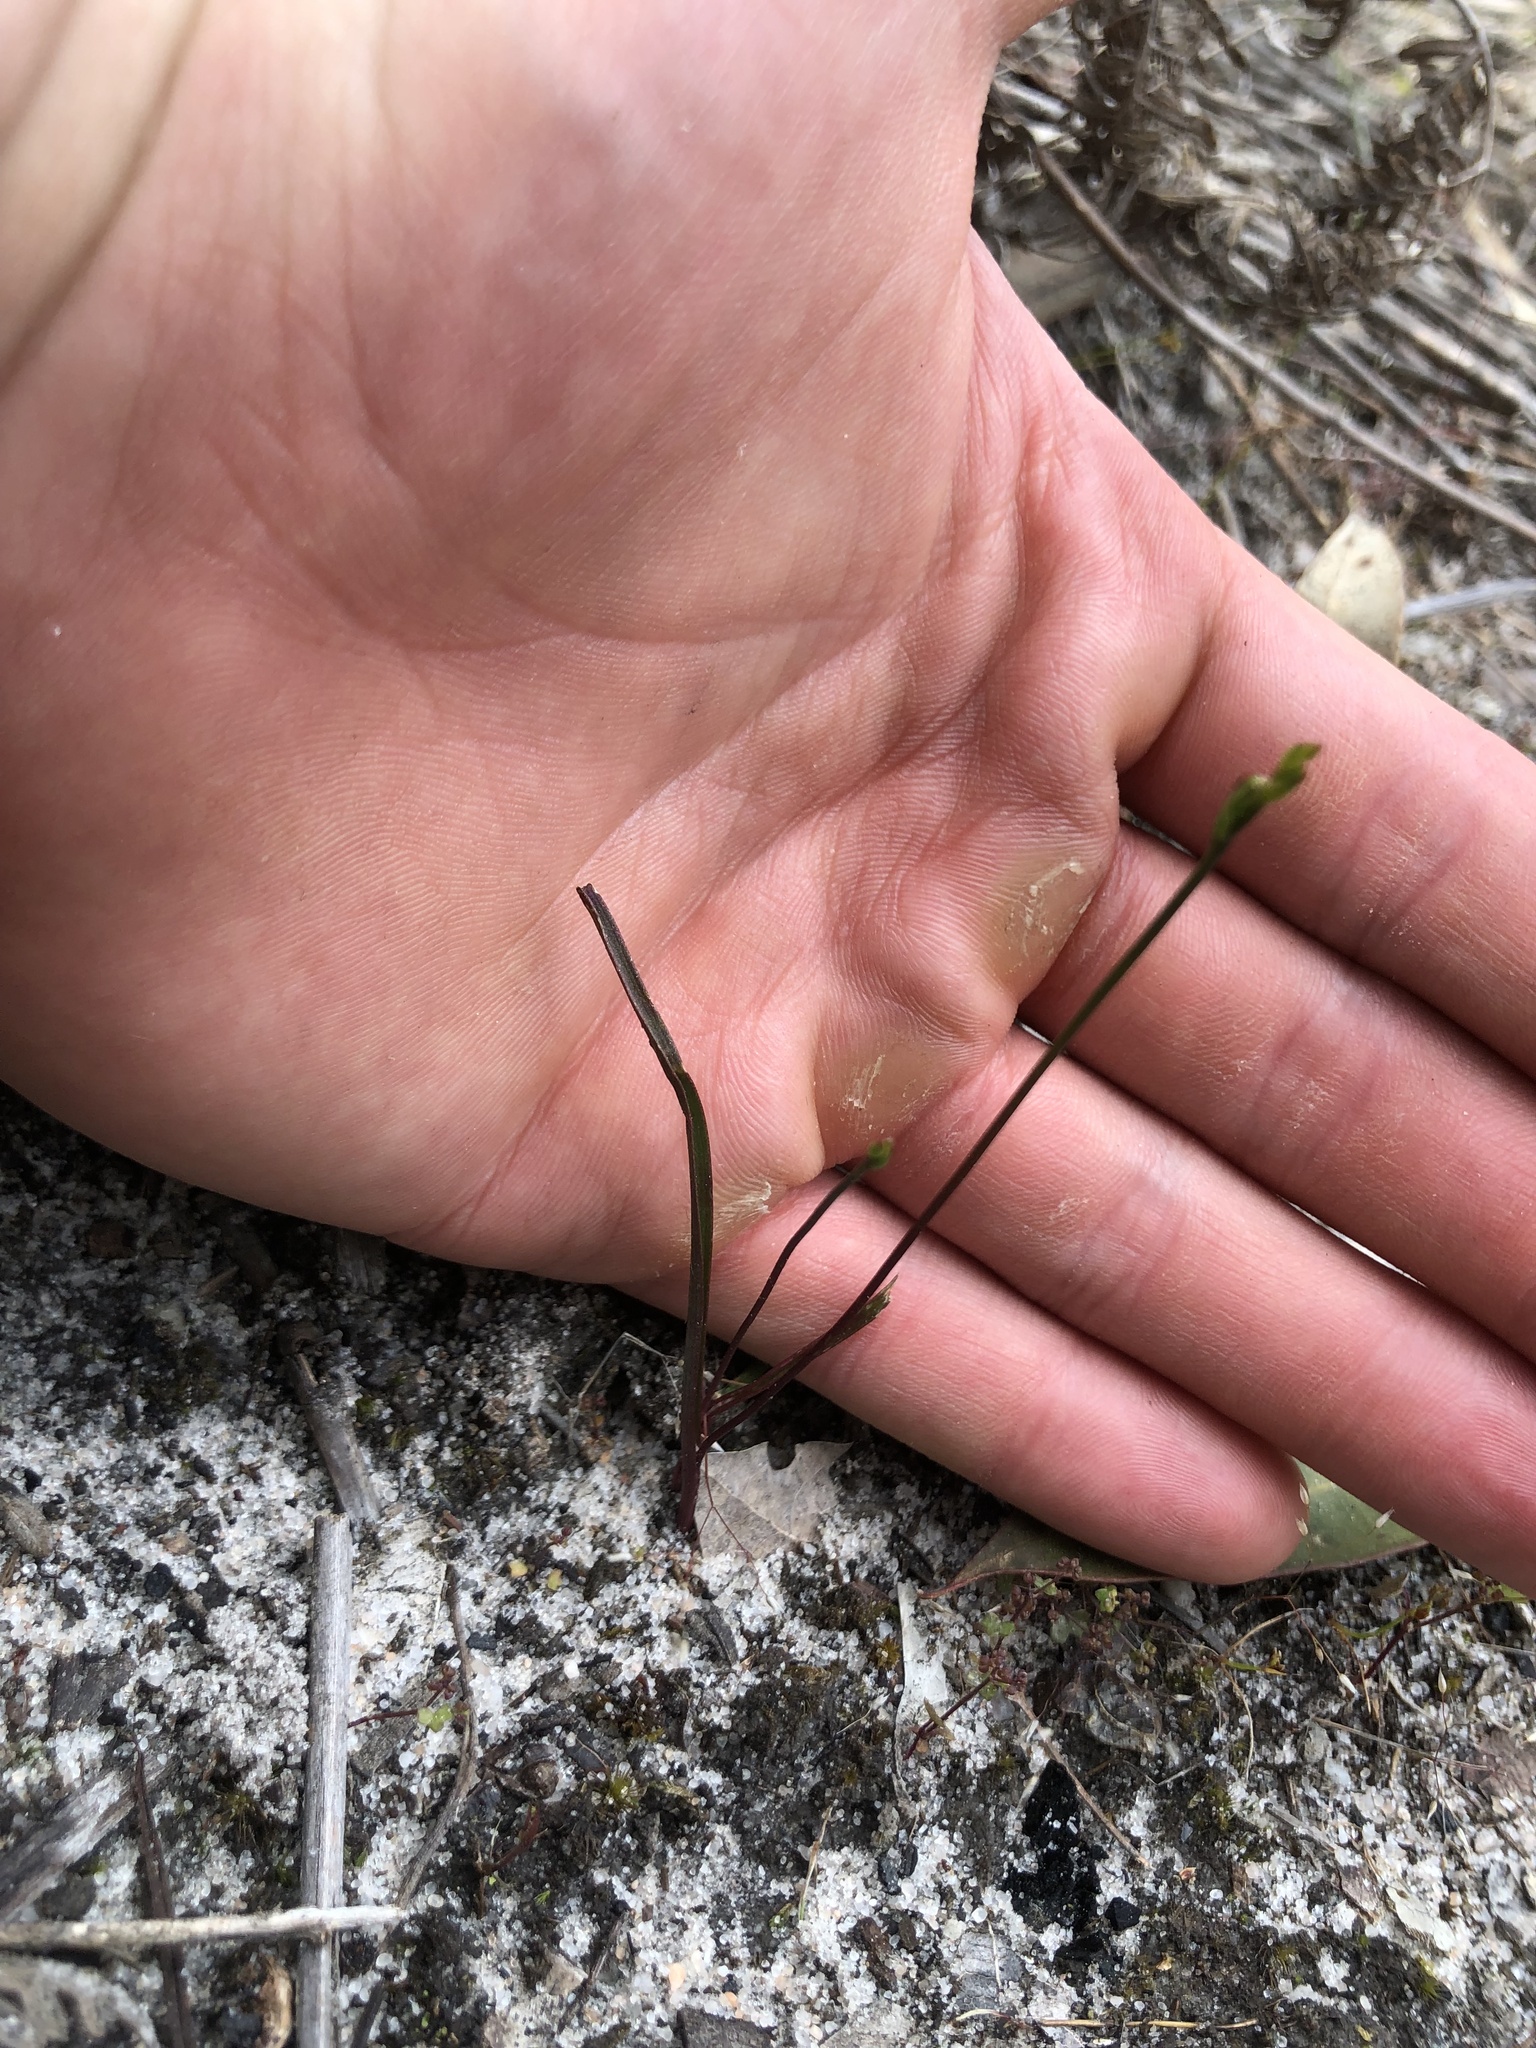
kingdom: Plantae
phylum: Tracheophyta
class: Liliopsida
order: Asparagales
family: Orchidaceae
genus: Caleana
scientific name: Caleana minor
